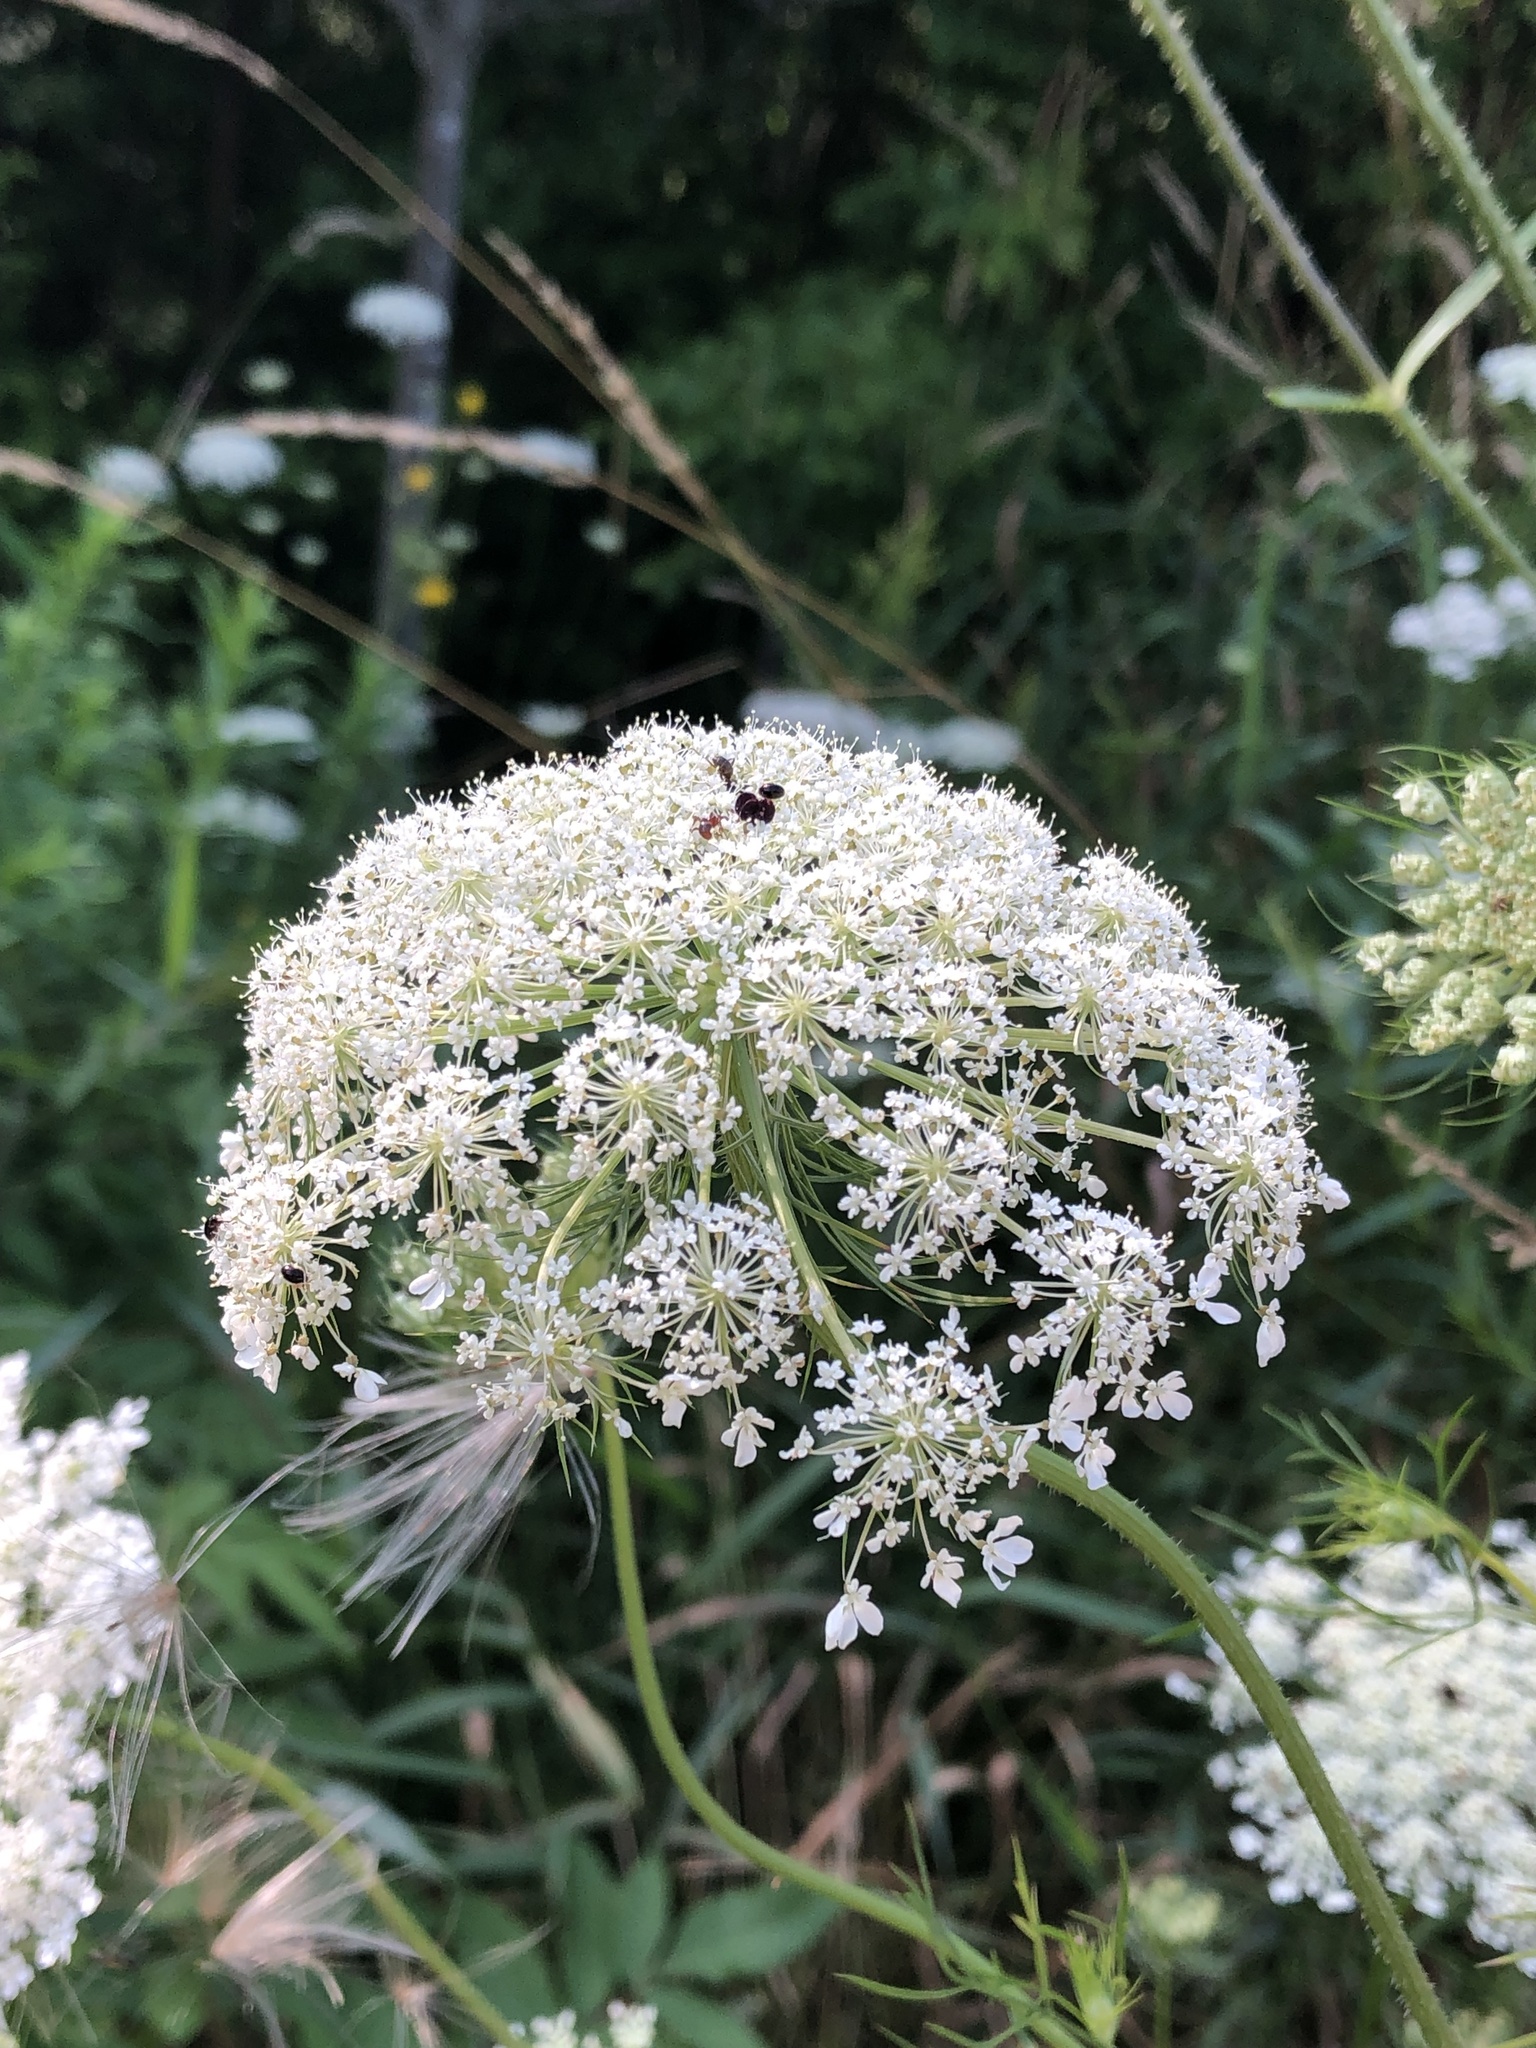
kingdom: Plantae
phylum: Tracheophyta
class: Magnoliopsida
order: Apiales
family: Apiaceae
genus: Daucus
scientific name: Daucus carota
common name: Wild carrot
